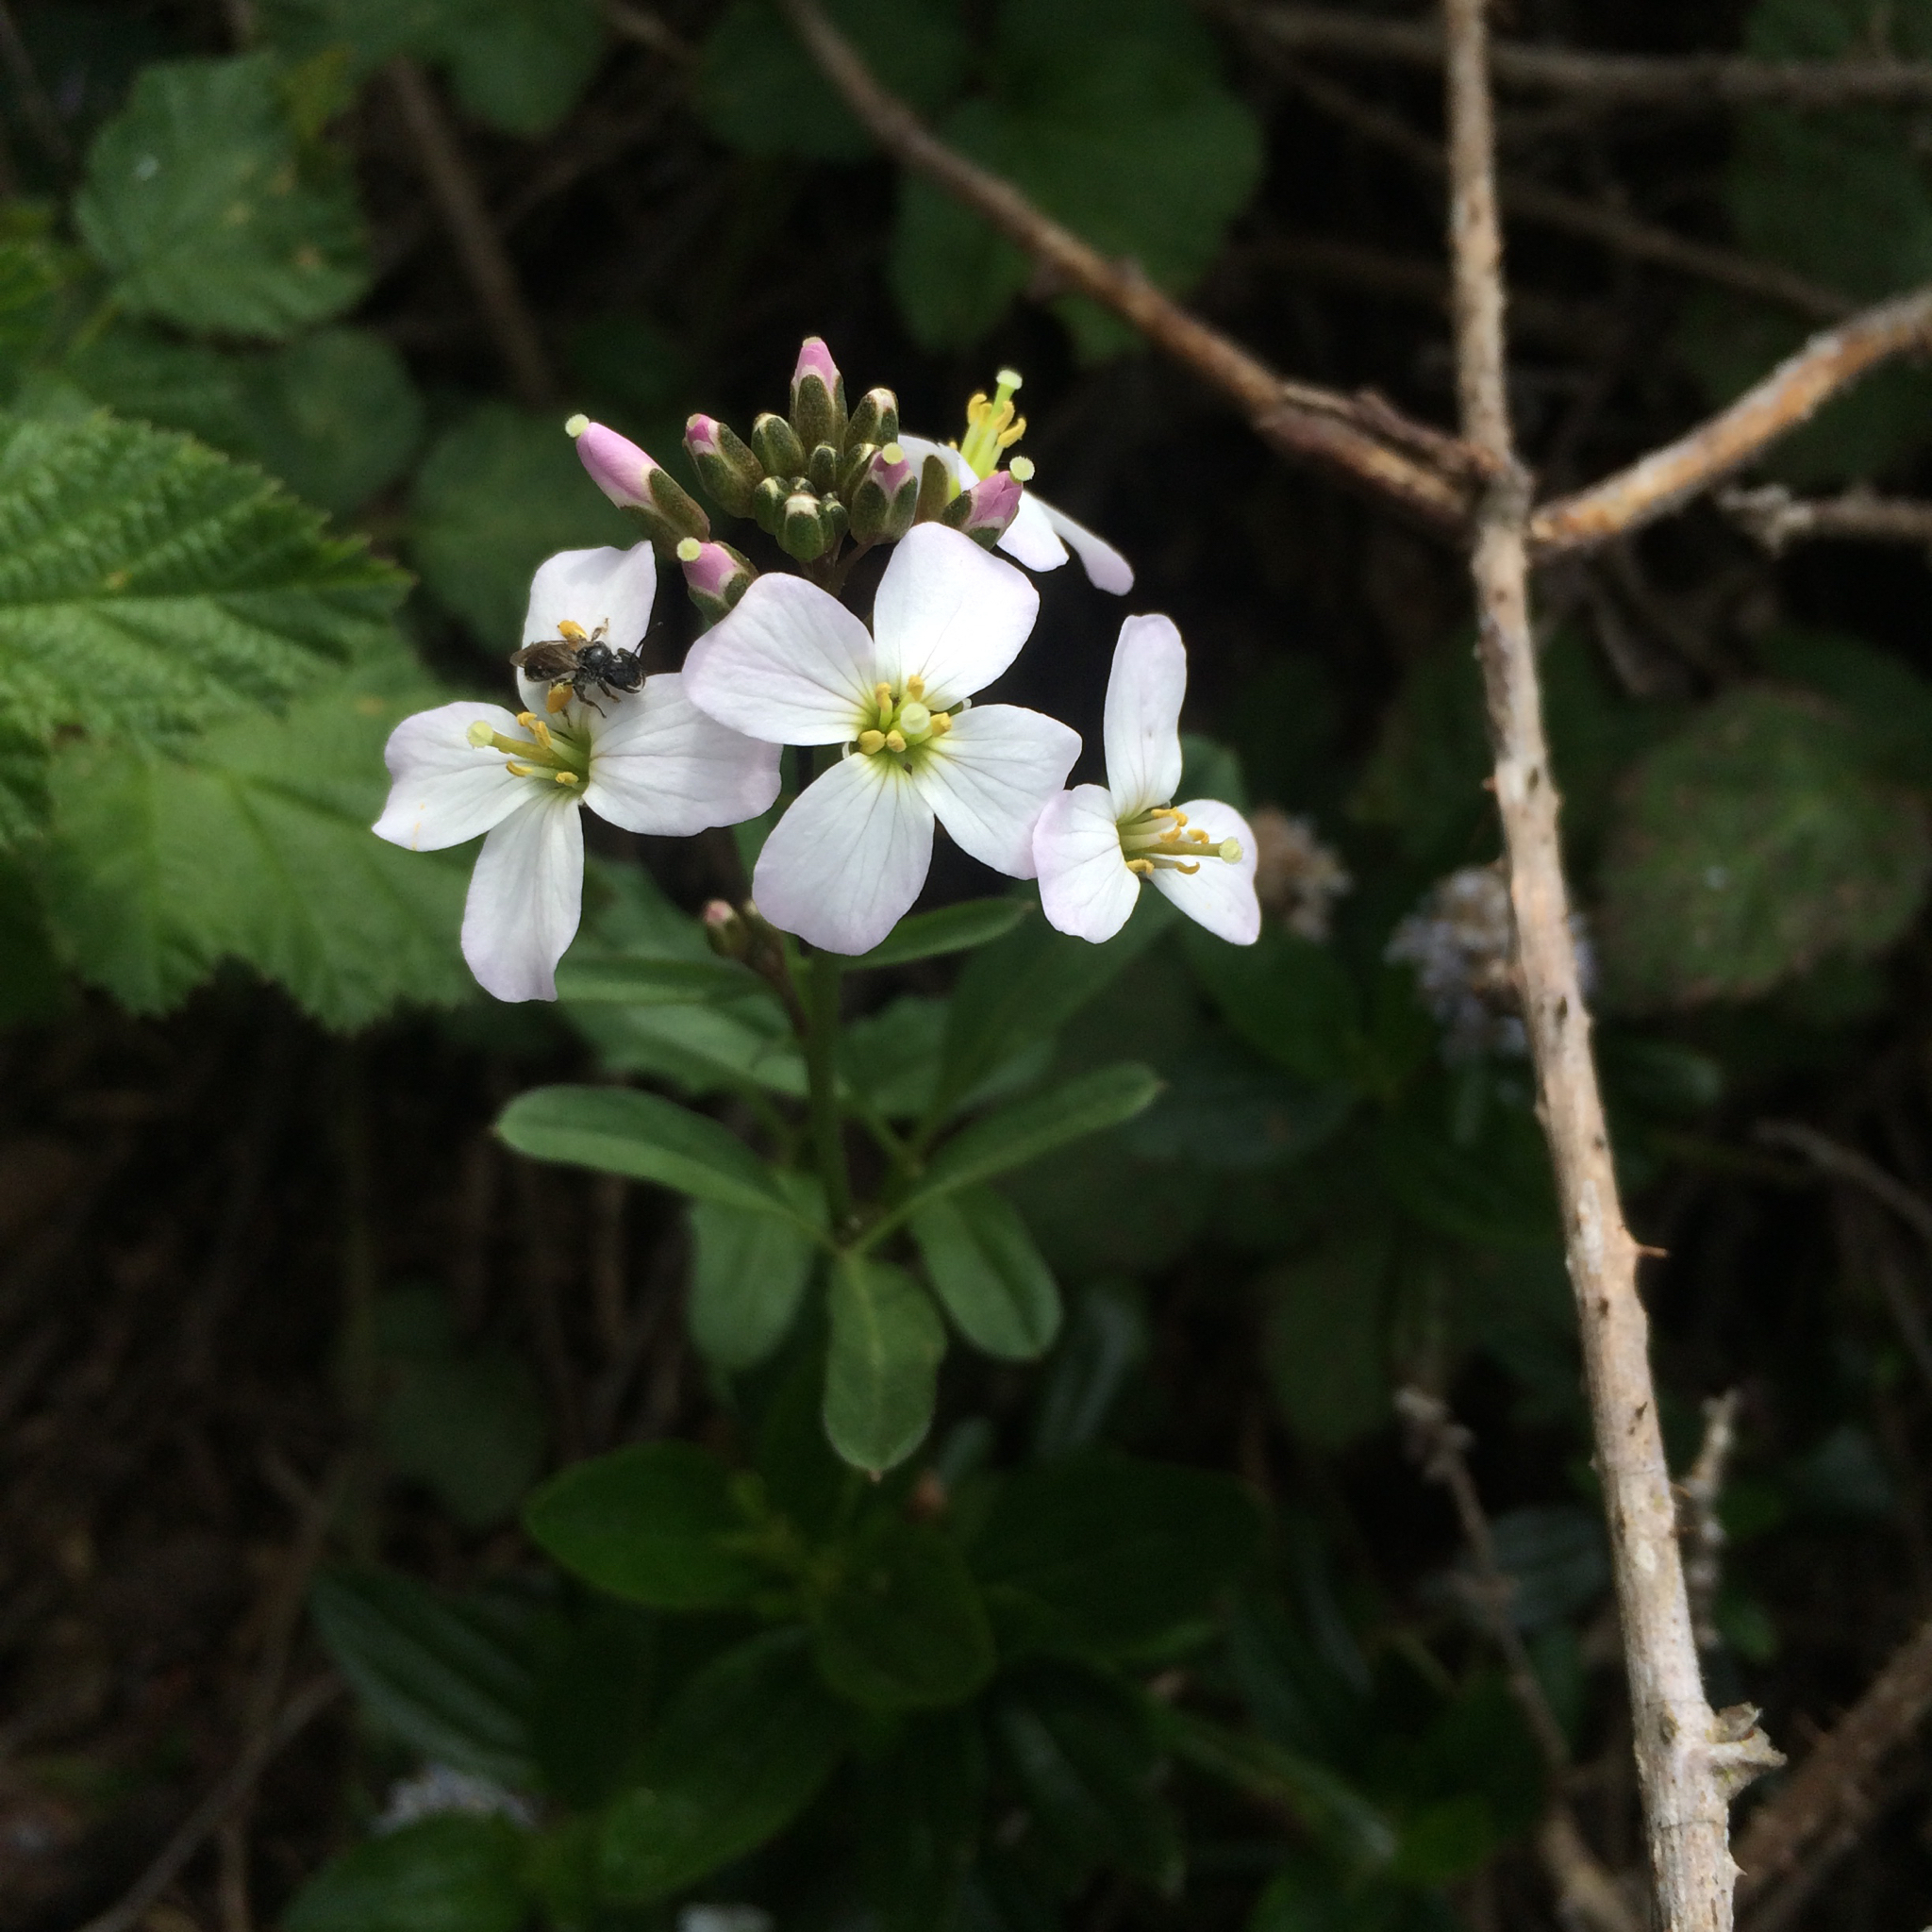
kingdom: Plantae
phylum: Tracheophyta
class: Magnoliopsida
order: Brassicales
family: Brassicaceae
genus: Cardamine
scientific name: Cardamine californica
